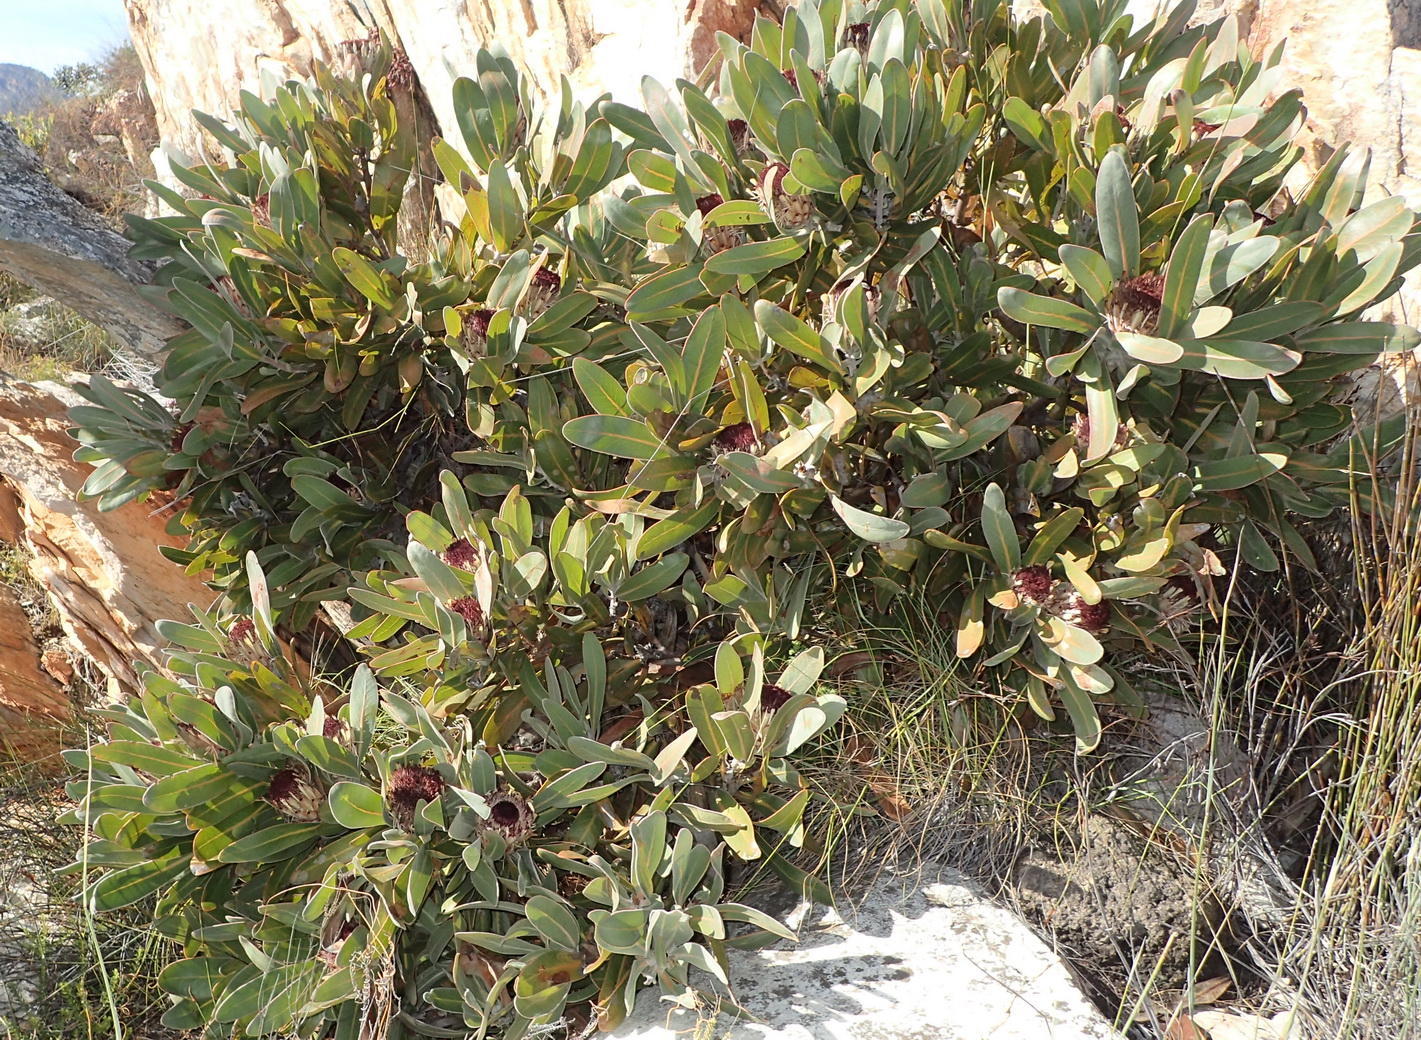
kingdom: Plantae
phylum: Tracheophyta
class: Magnoliopsida
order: Proteales
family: Proteaceae
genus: Protea
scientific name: Protea lorifolia
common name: Strap-leaved protea
